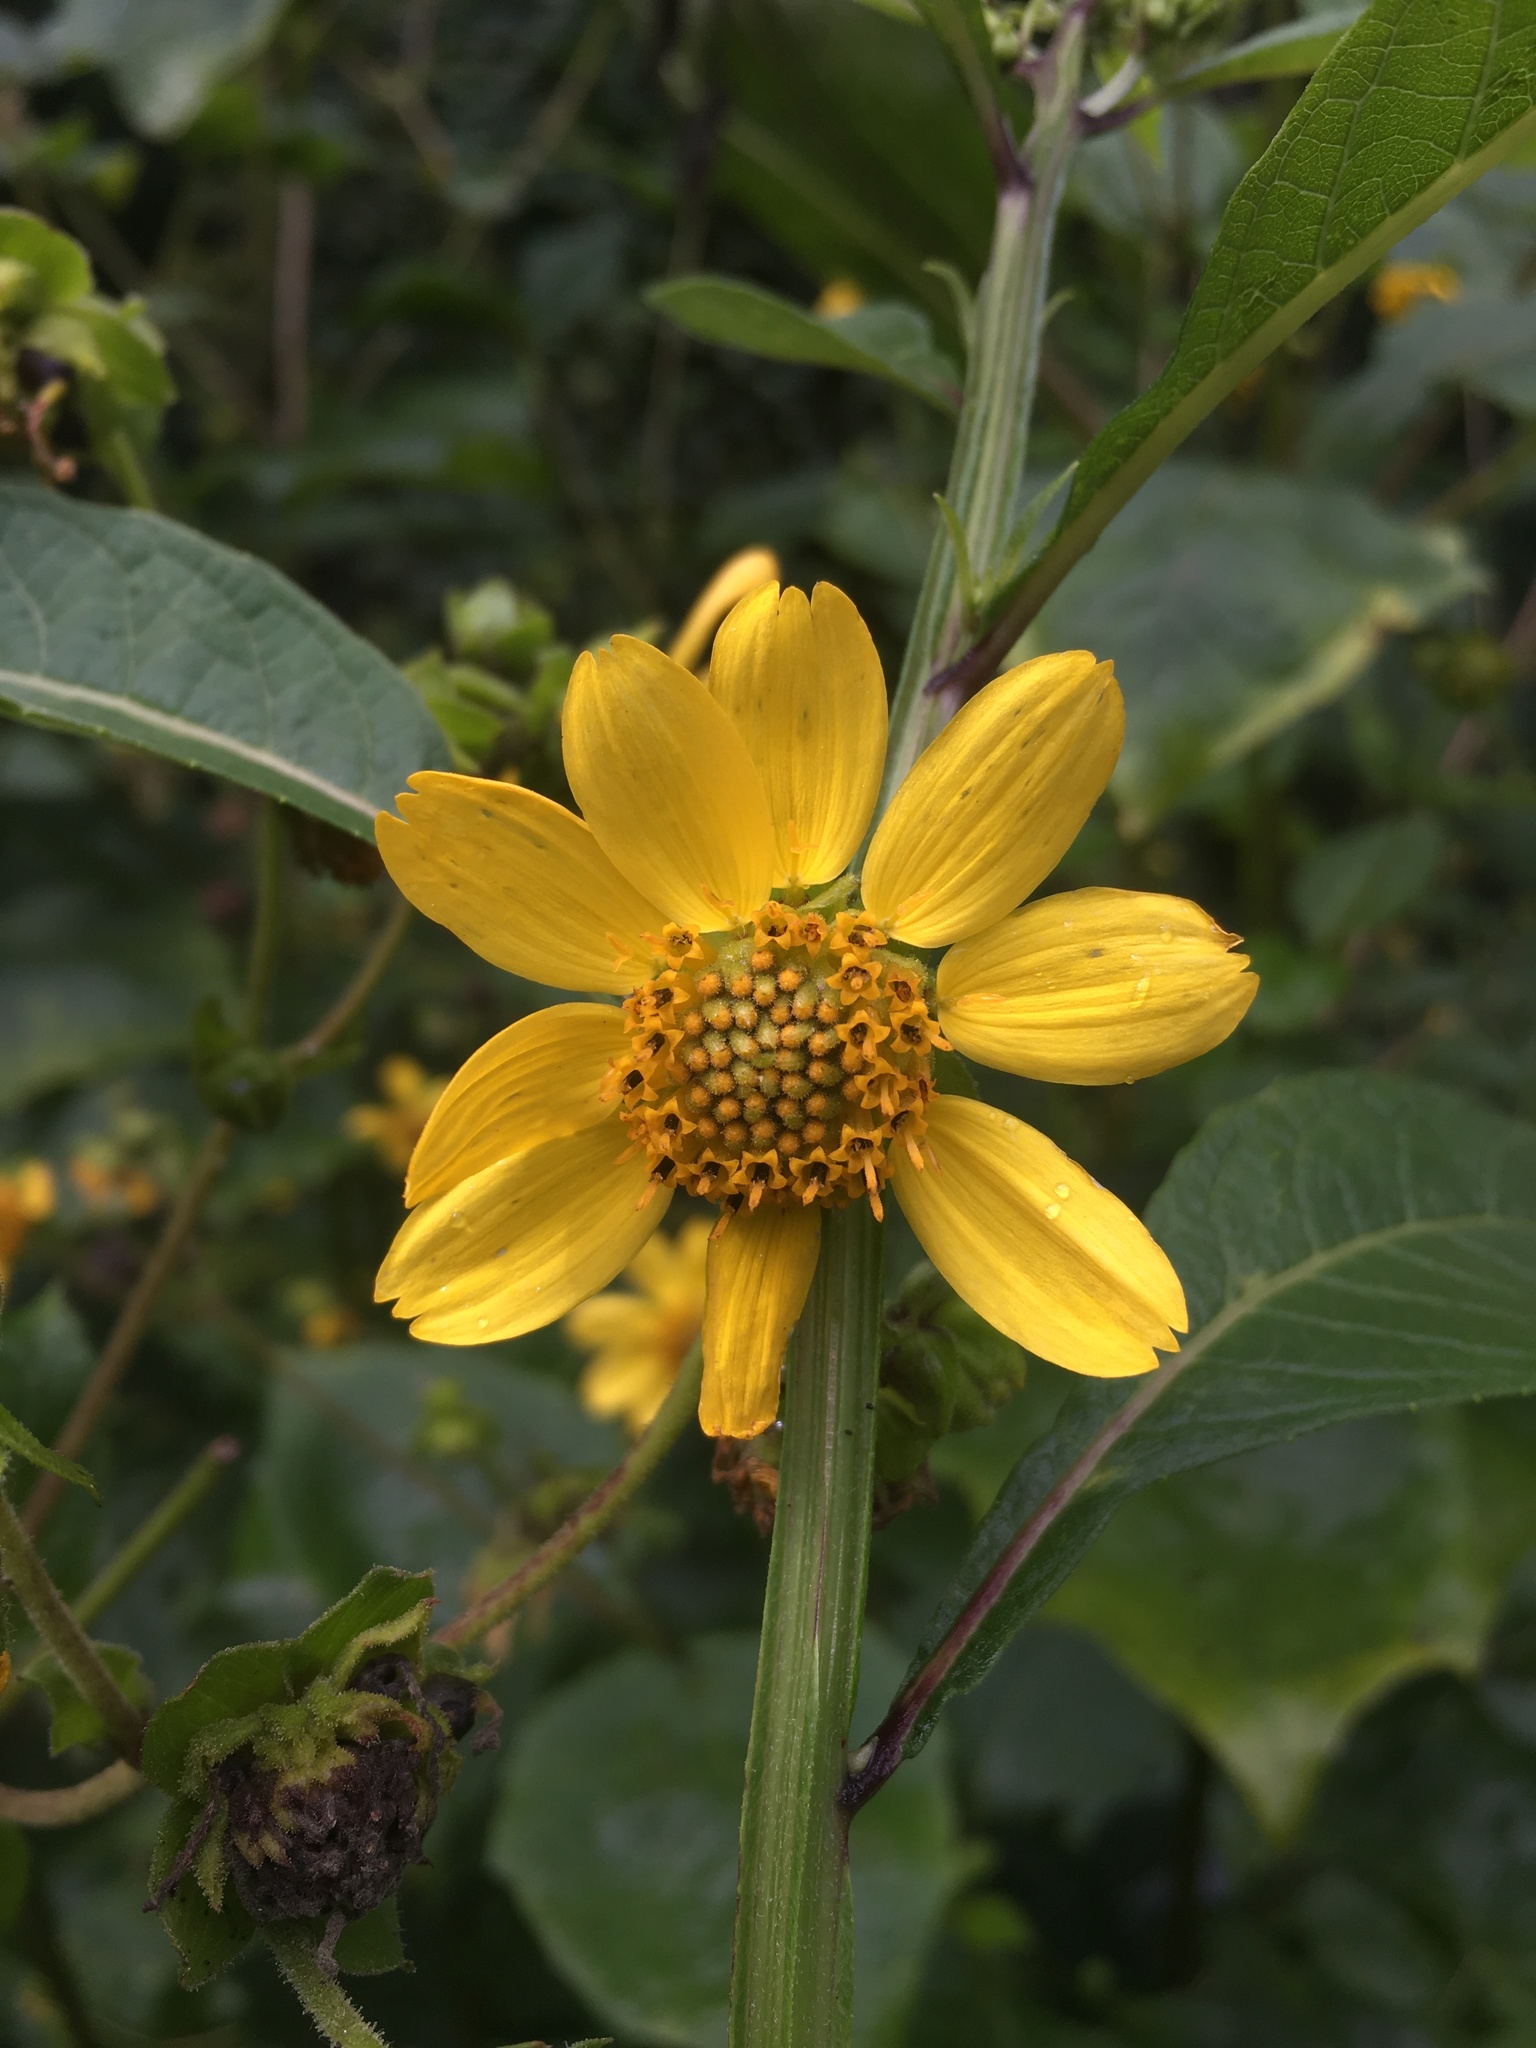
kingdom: Plantae
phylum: Tracheophyta
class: Magnoliopsida
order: Asterales
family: Asteraceae
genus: Smallanthus
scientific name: Smallanthus uvedalia
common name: Bear's-foot
